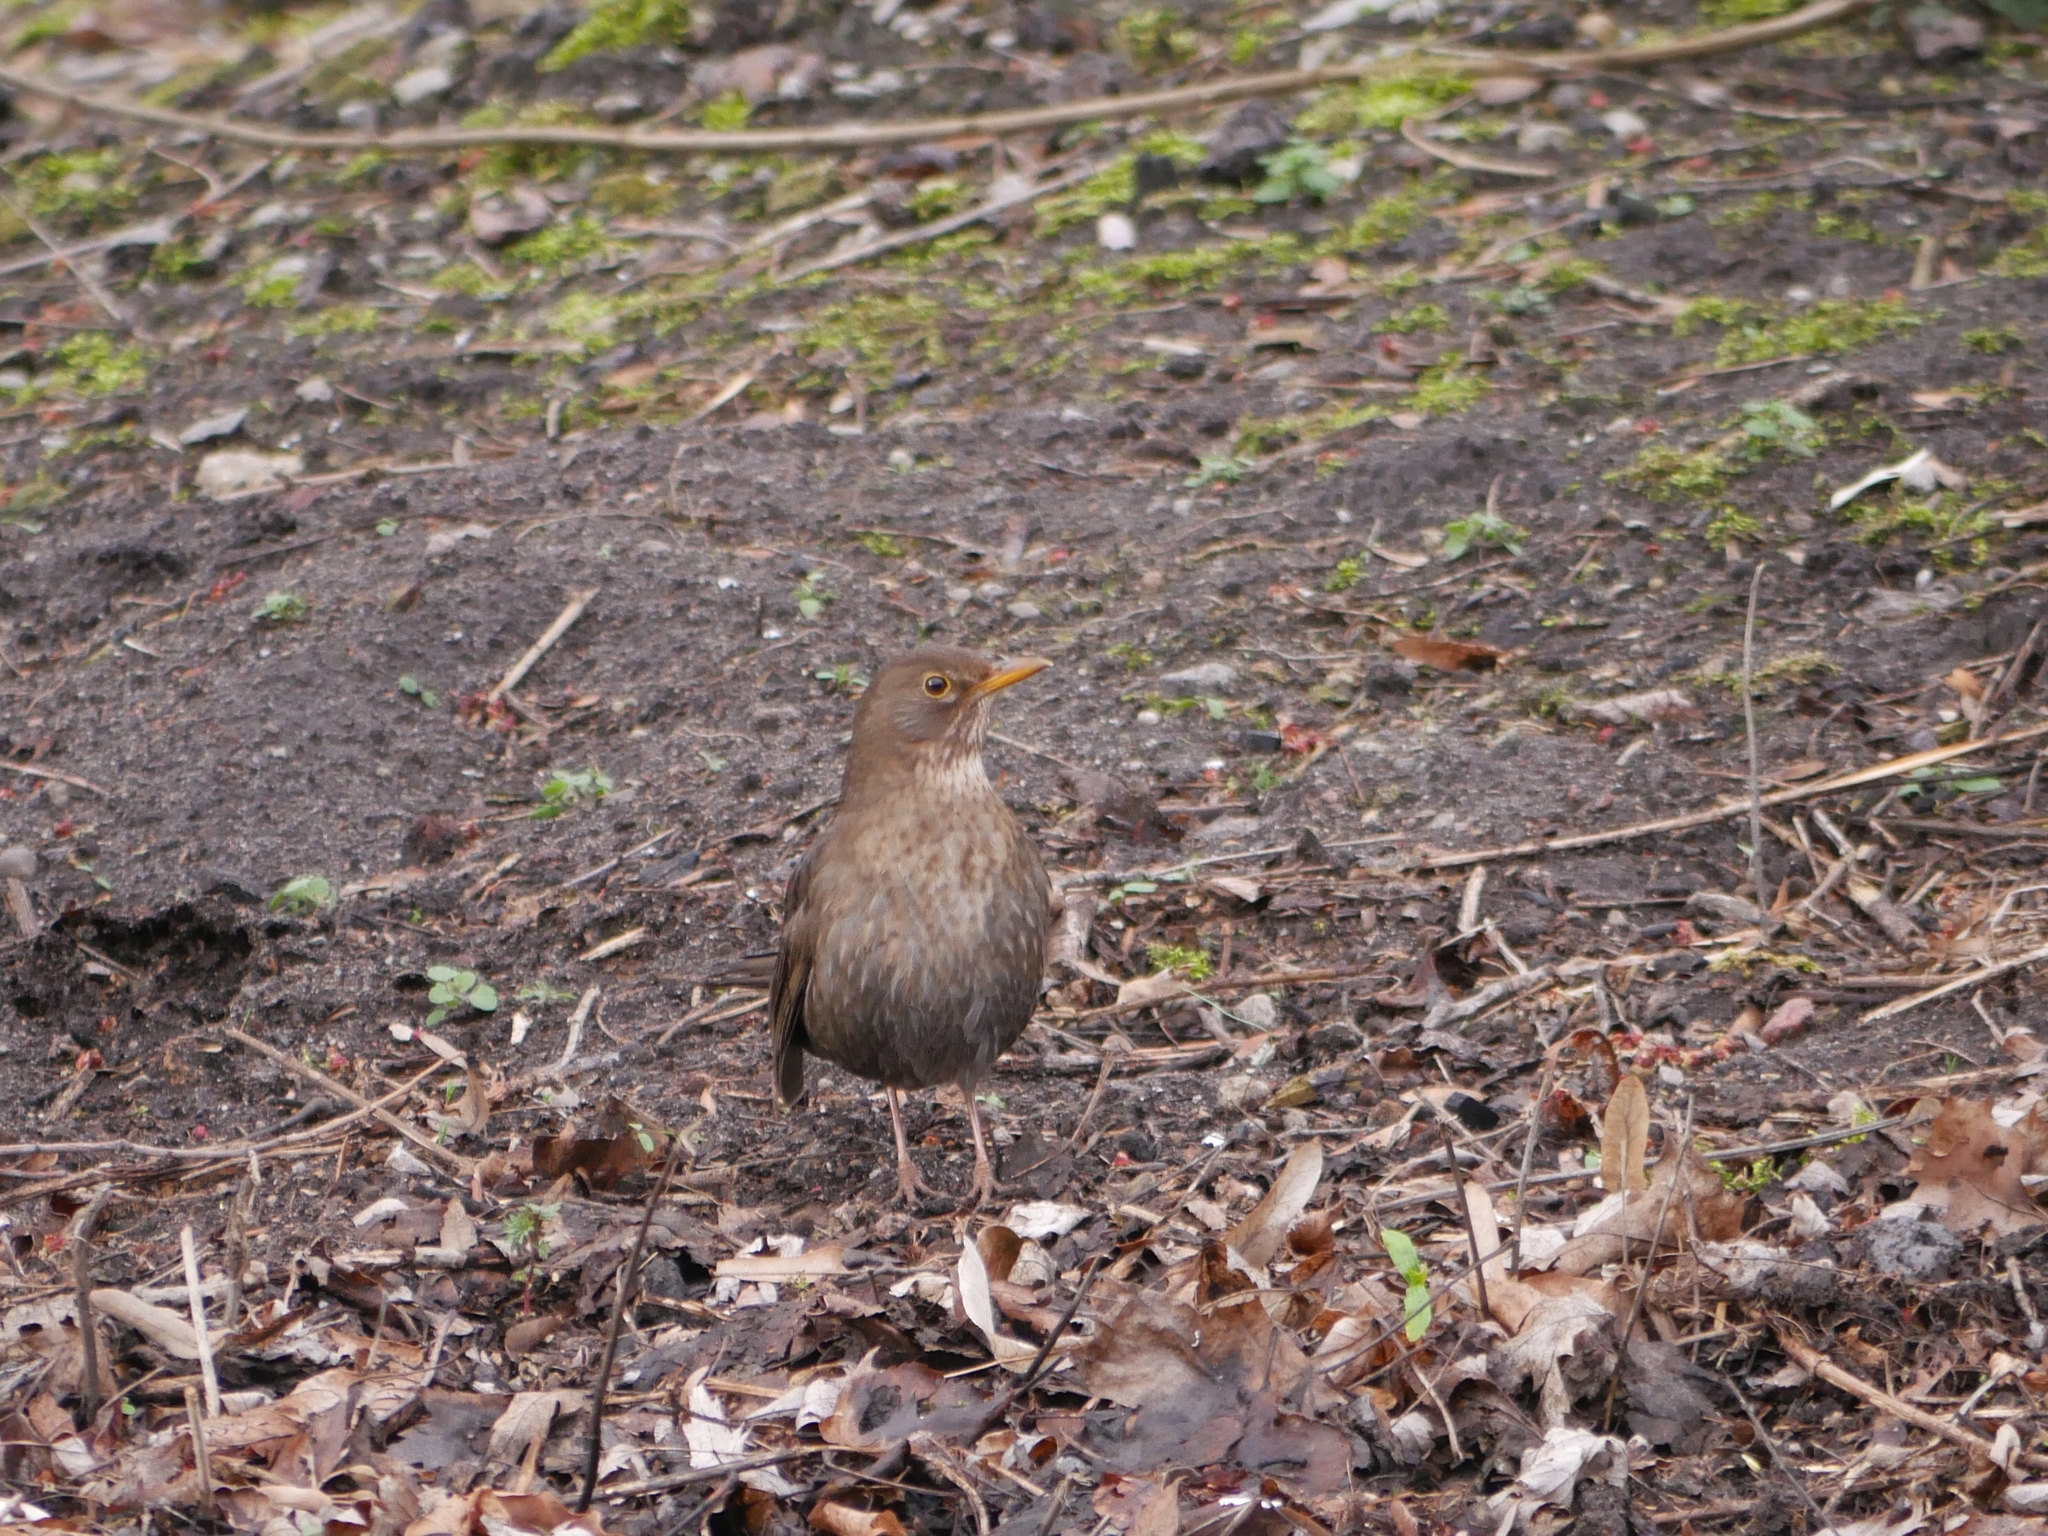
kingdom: Animalia
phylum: Chordata
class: Aves
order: Passeriformes
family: Turdidae
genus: Turdus
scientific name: Turdus merula
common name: Common blackbird
